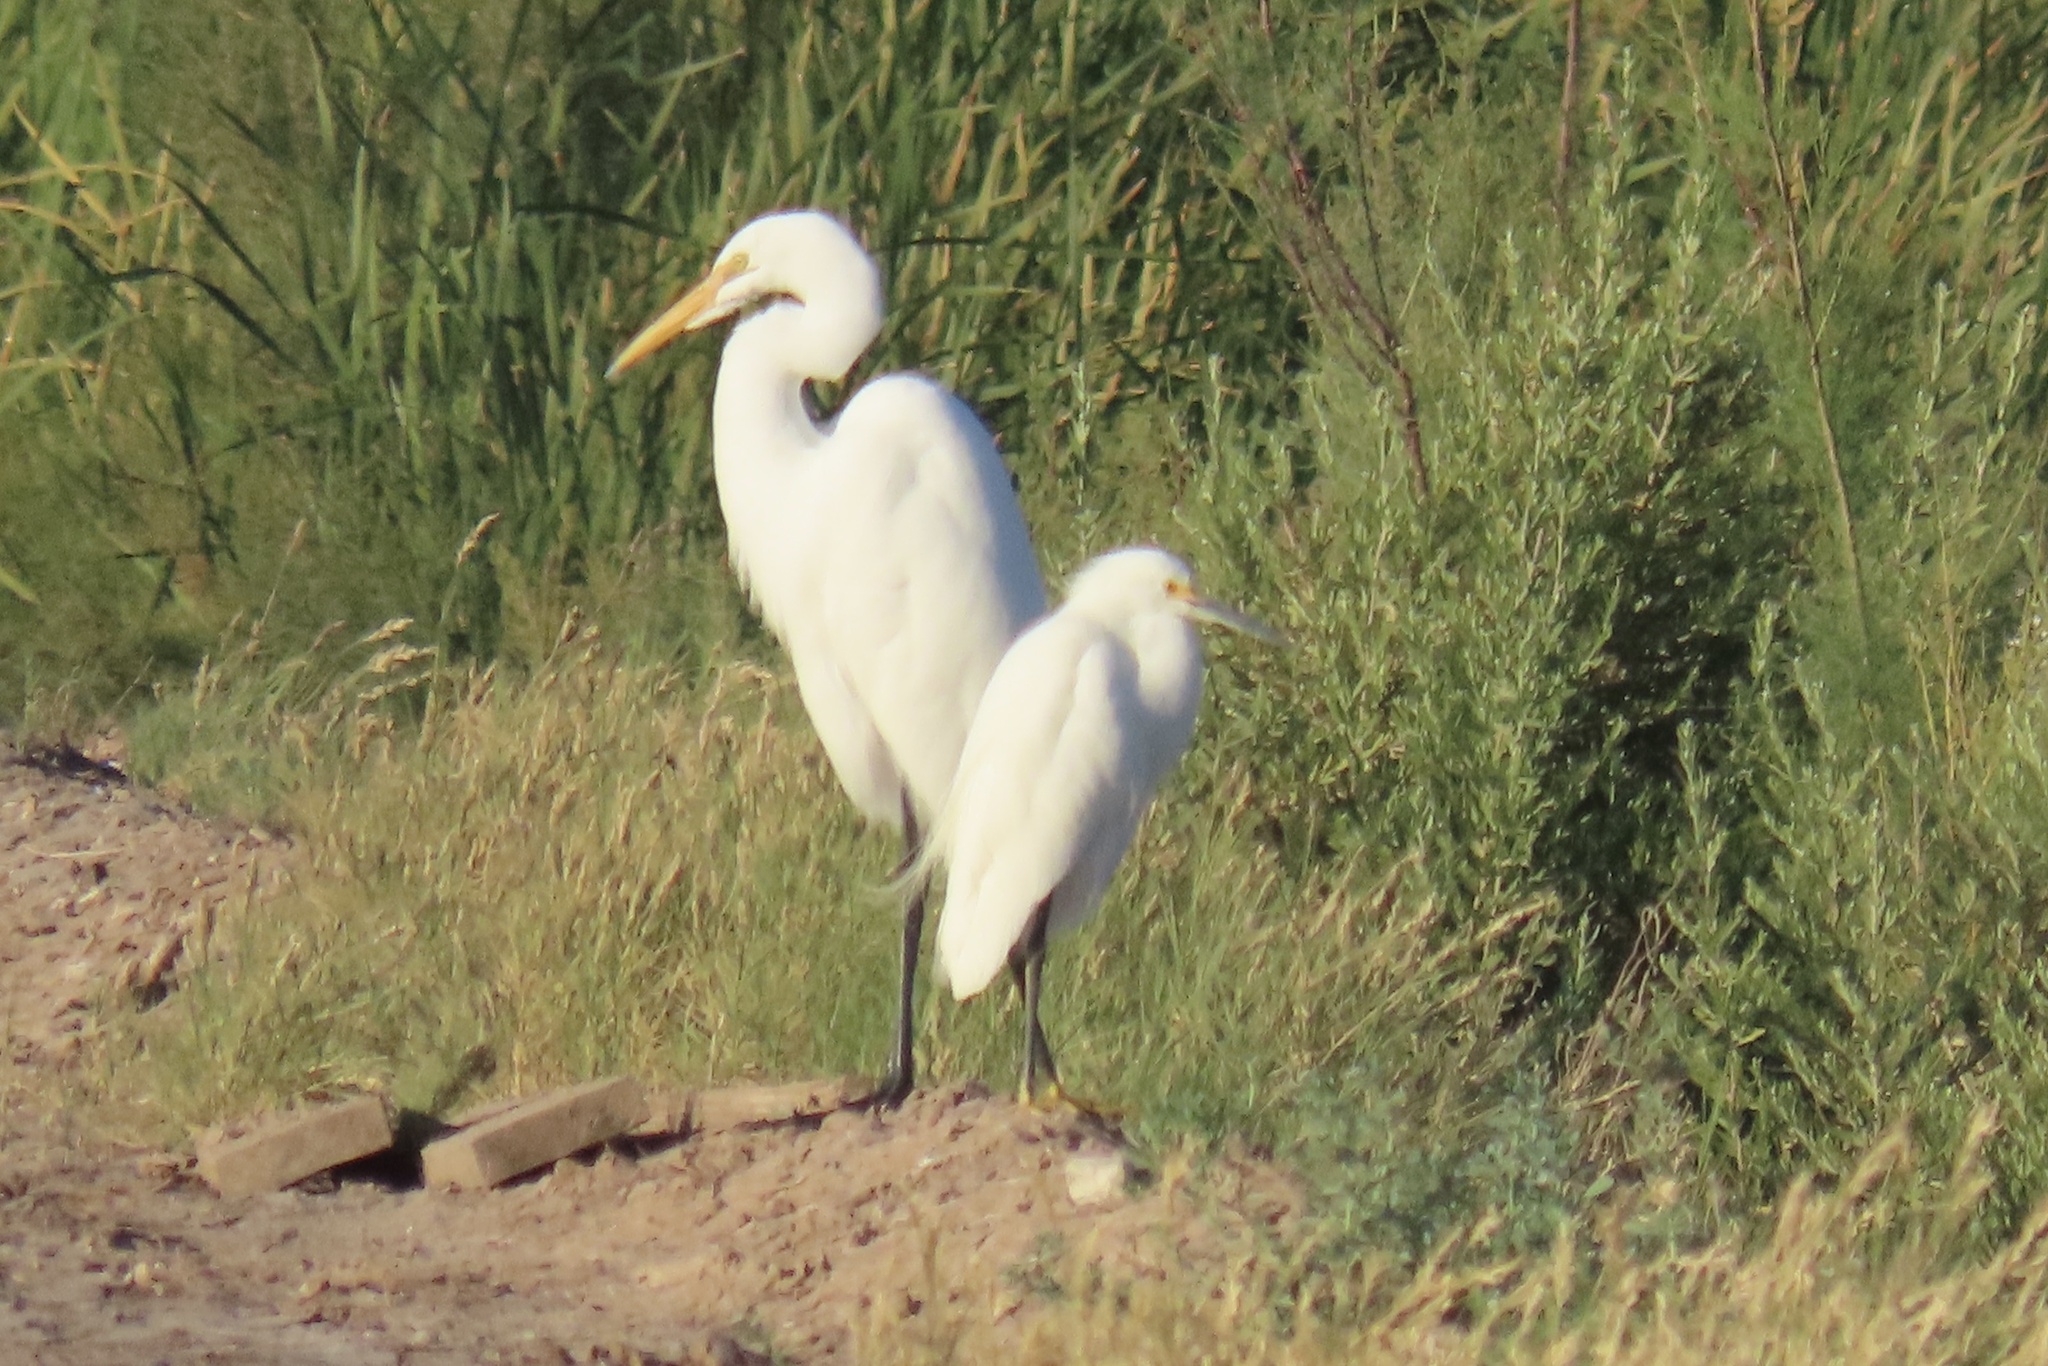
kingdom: Animalia
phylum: Chordata
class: Aves
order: Pelecaniformes
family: Ardeidae
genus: Ardea
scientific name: Ardea alba
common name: Great egret
